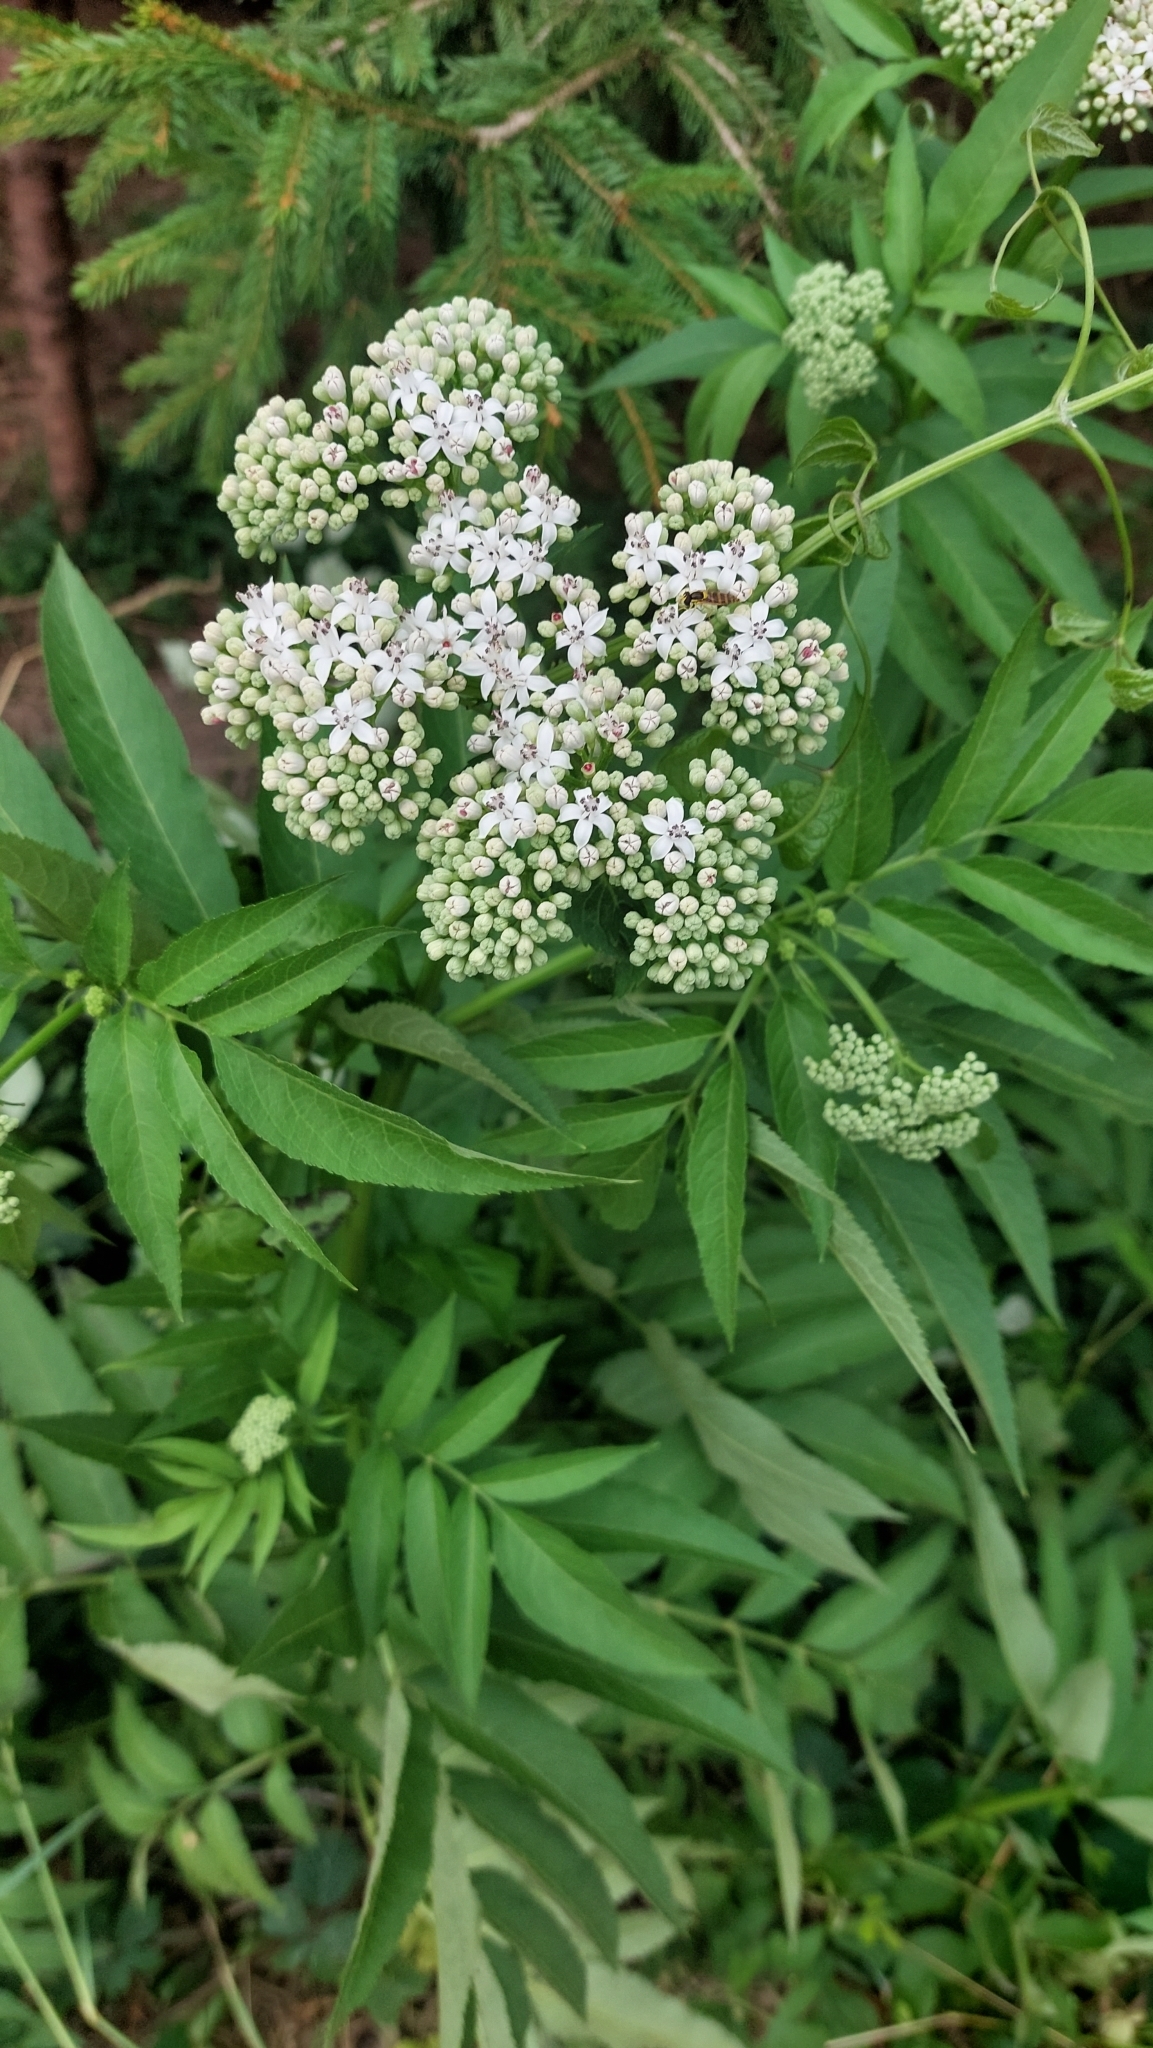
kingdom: Plantae
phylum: Tracheophyta
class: Magnoliopsida
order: Dipsacales
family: Viburnaceae
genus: Sambucus
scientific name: Sambucus ebulus
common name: Dwarf elder
